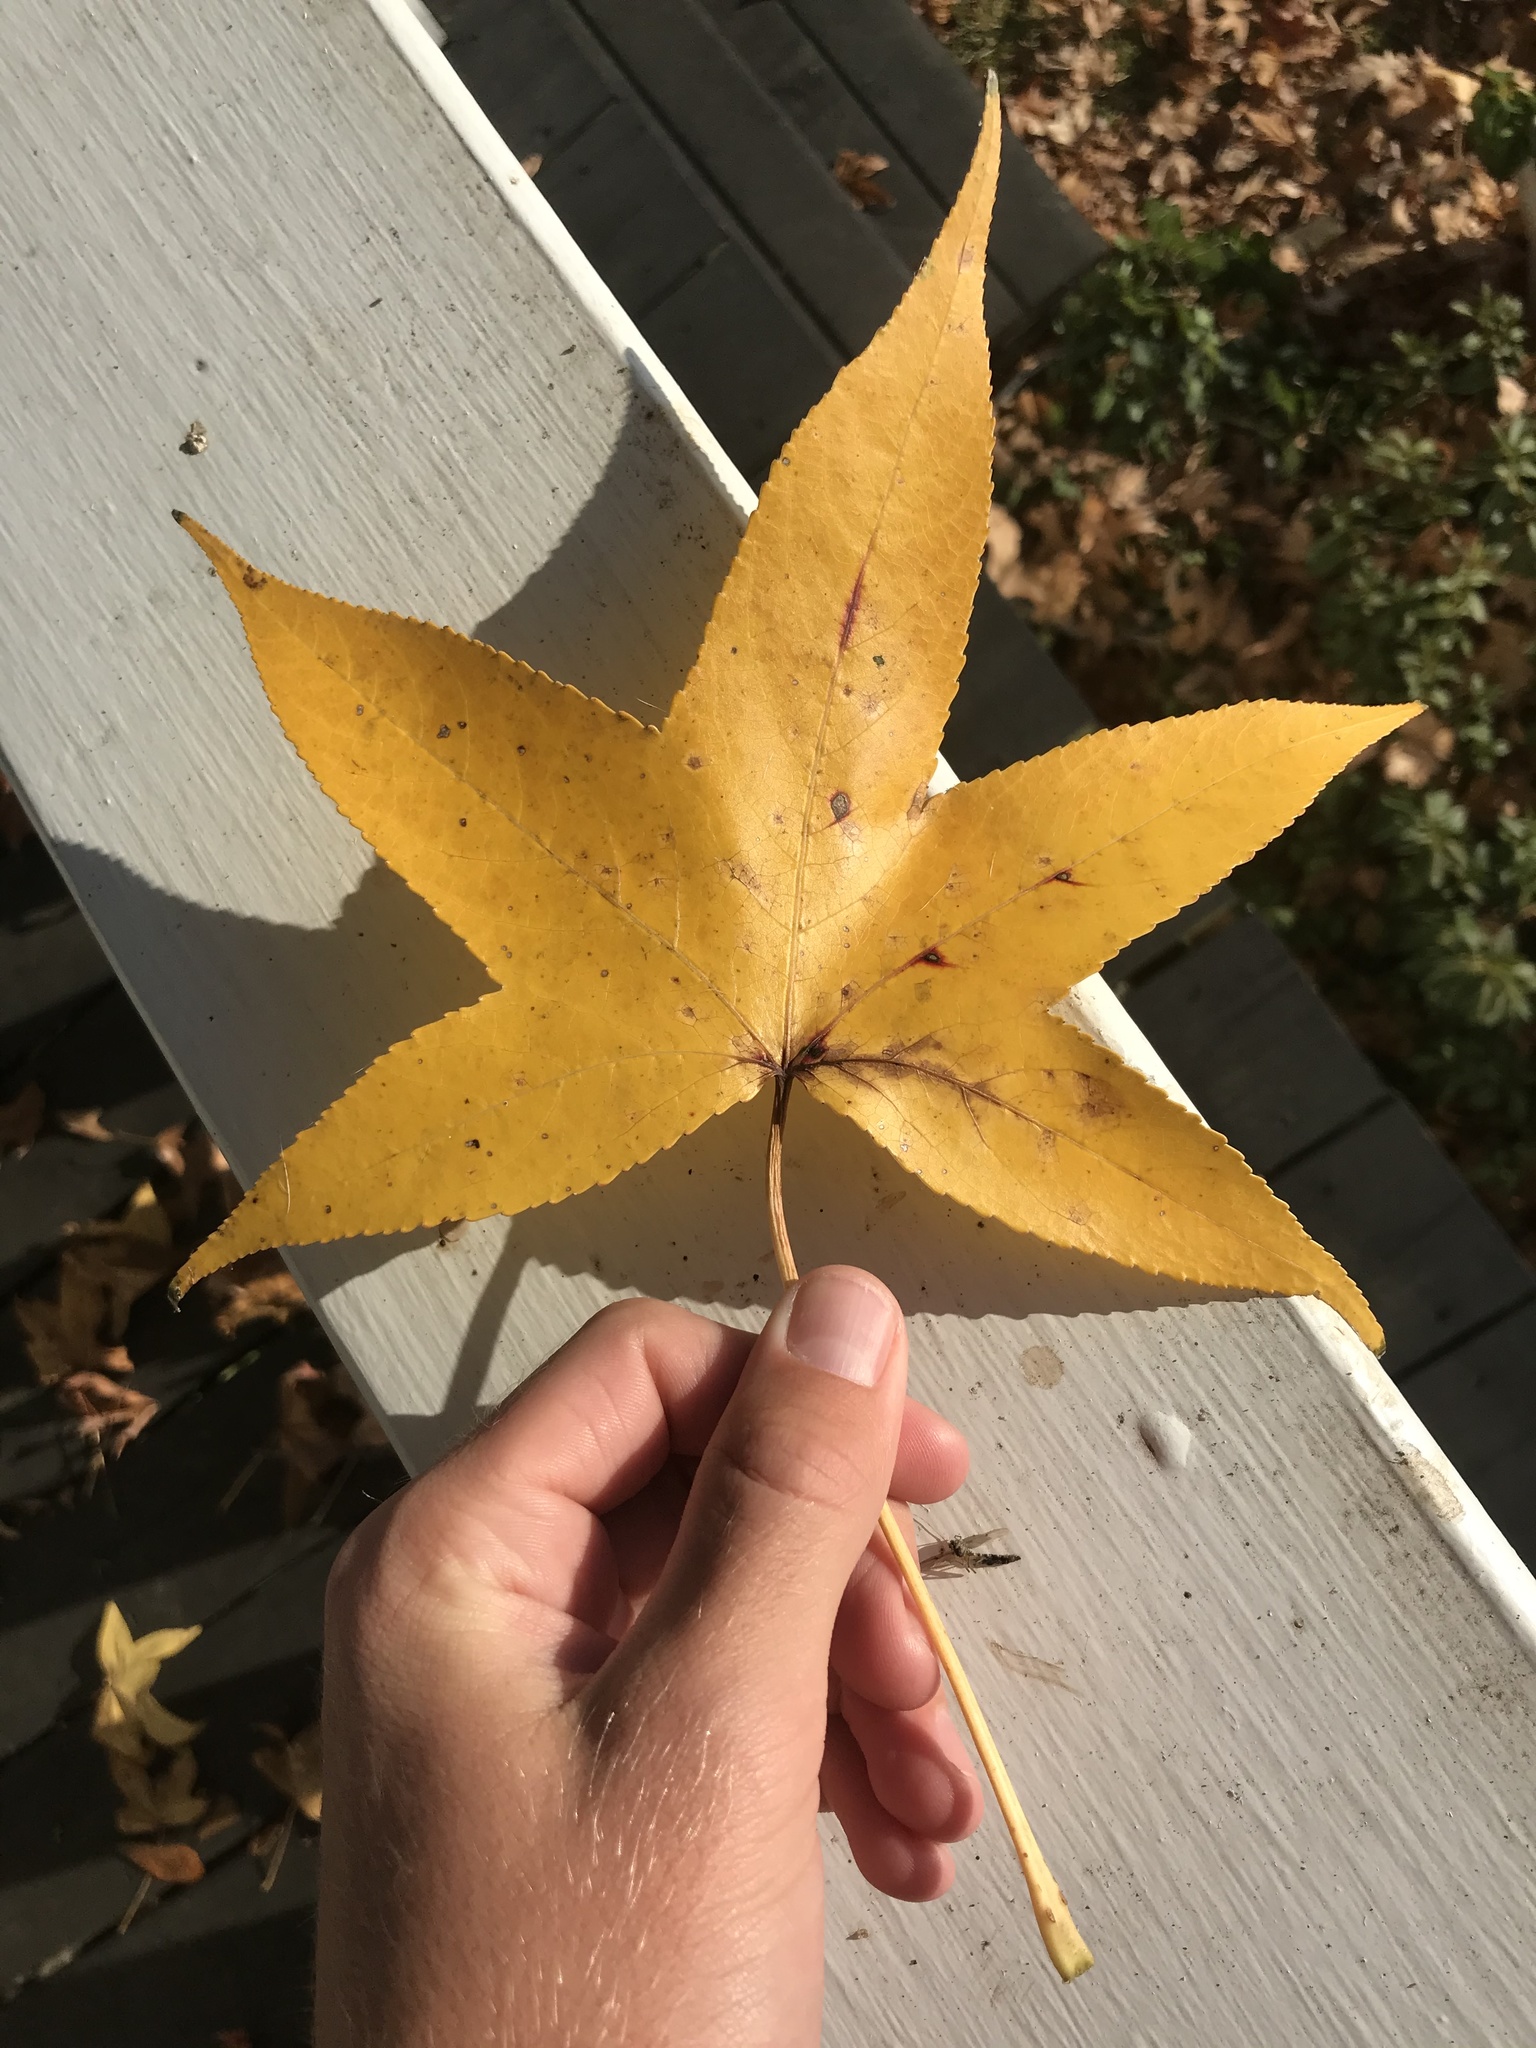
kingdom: Plantae
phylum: Tracheophyta
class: Magnoliopsida
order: Saxifragales
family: Altingiaceae
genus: Liquidambar
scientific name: Liquidambar styraciflua
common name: Sweet gum
